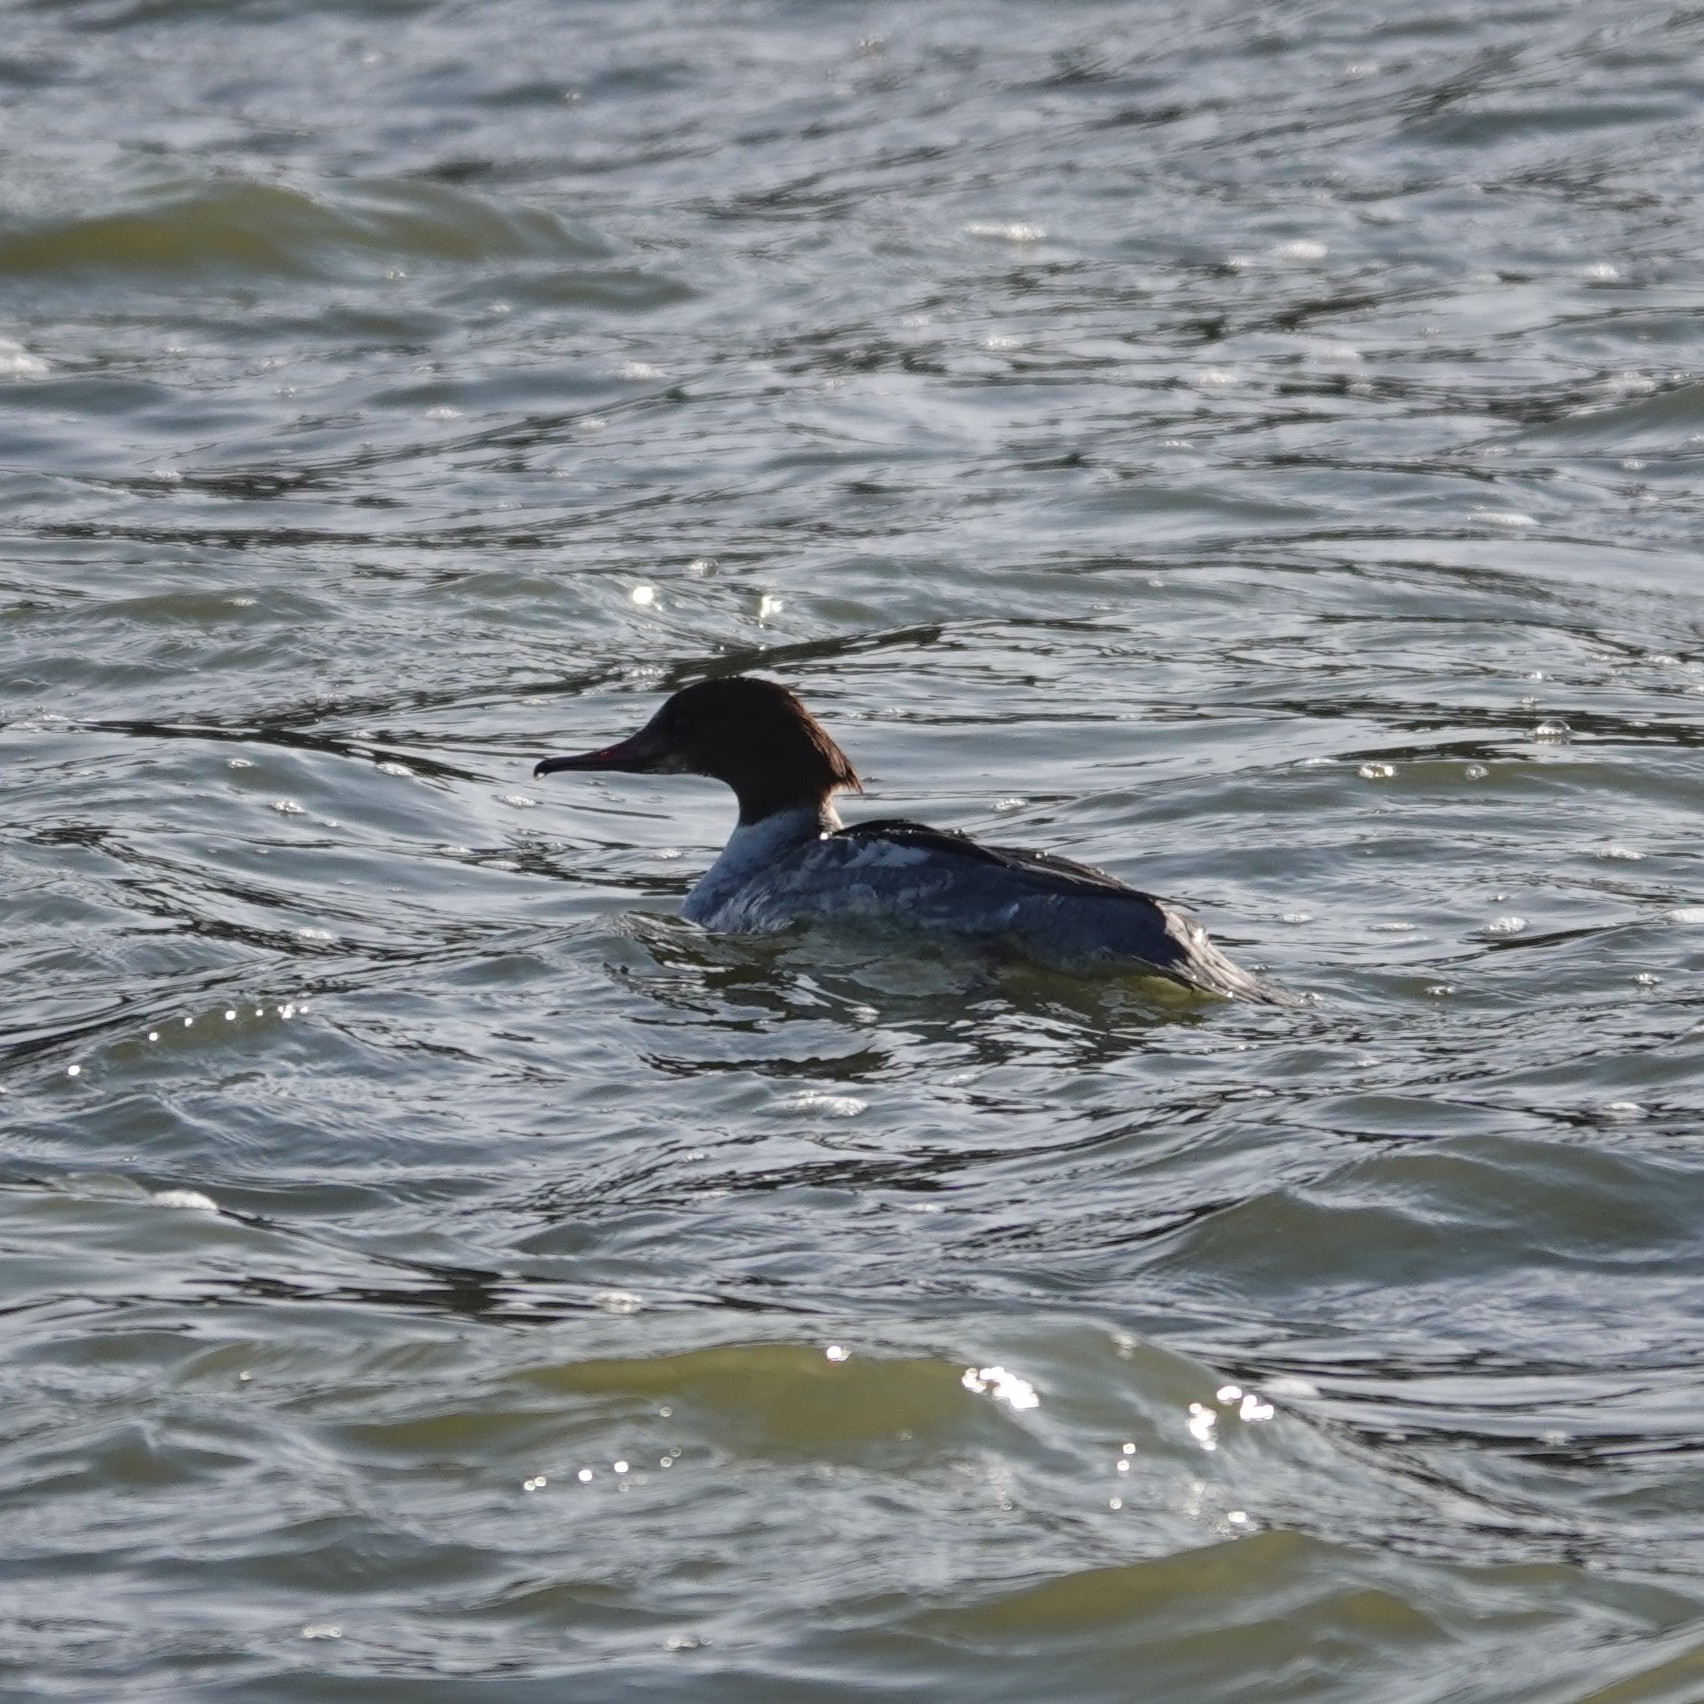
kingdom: Animalia
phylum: Chordata
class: Aves
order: Anseriformes
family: Anatidae
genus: Mergus
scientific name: Mergus merganser
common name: Common merganser
